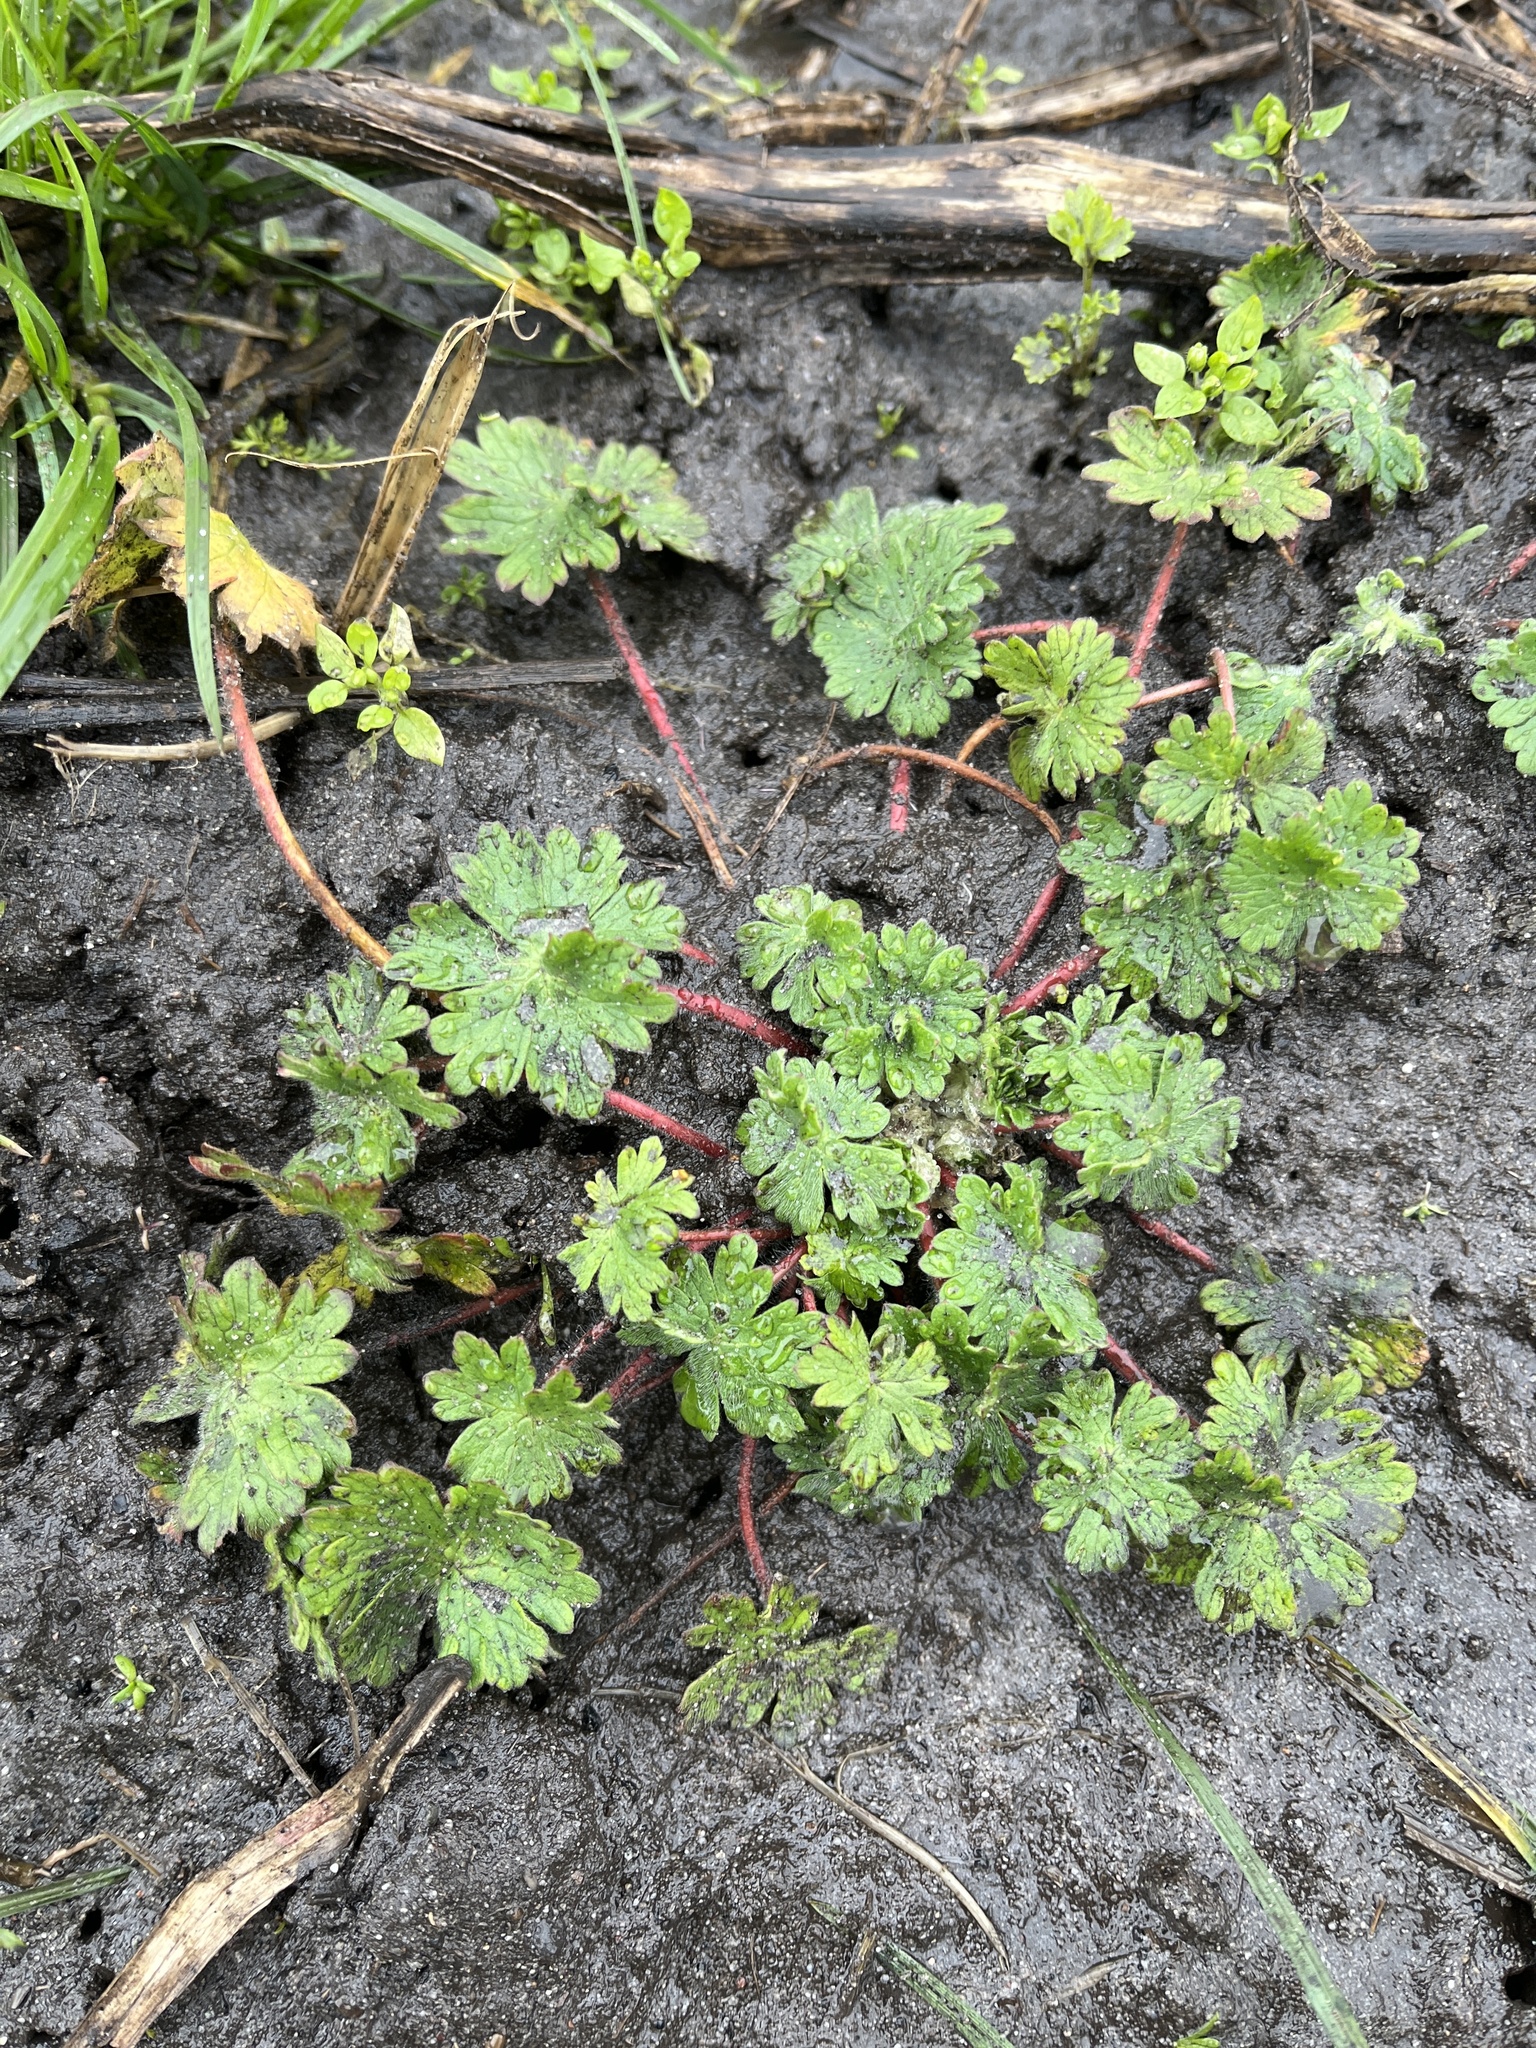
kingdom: Plantae
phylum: Tracheophyta
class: Magnoliopsida
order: Geraniales
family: Geraniaceae
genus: Geranium
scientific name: Geranium molle
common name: Dove's-foot crane's-bill
